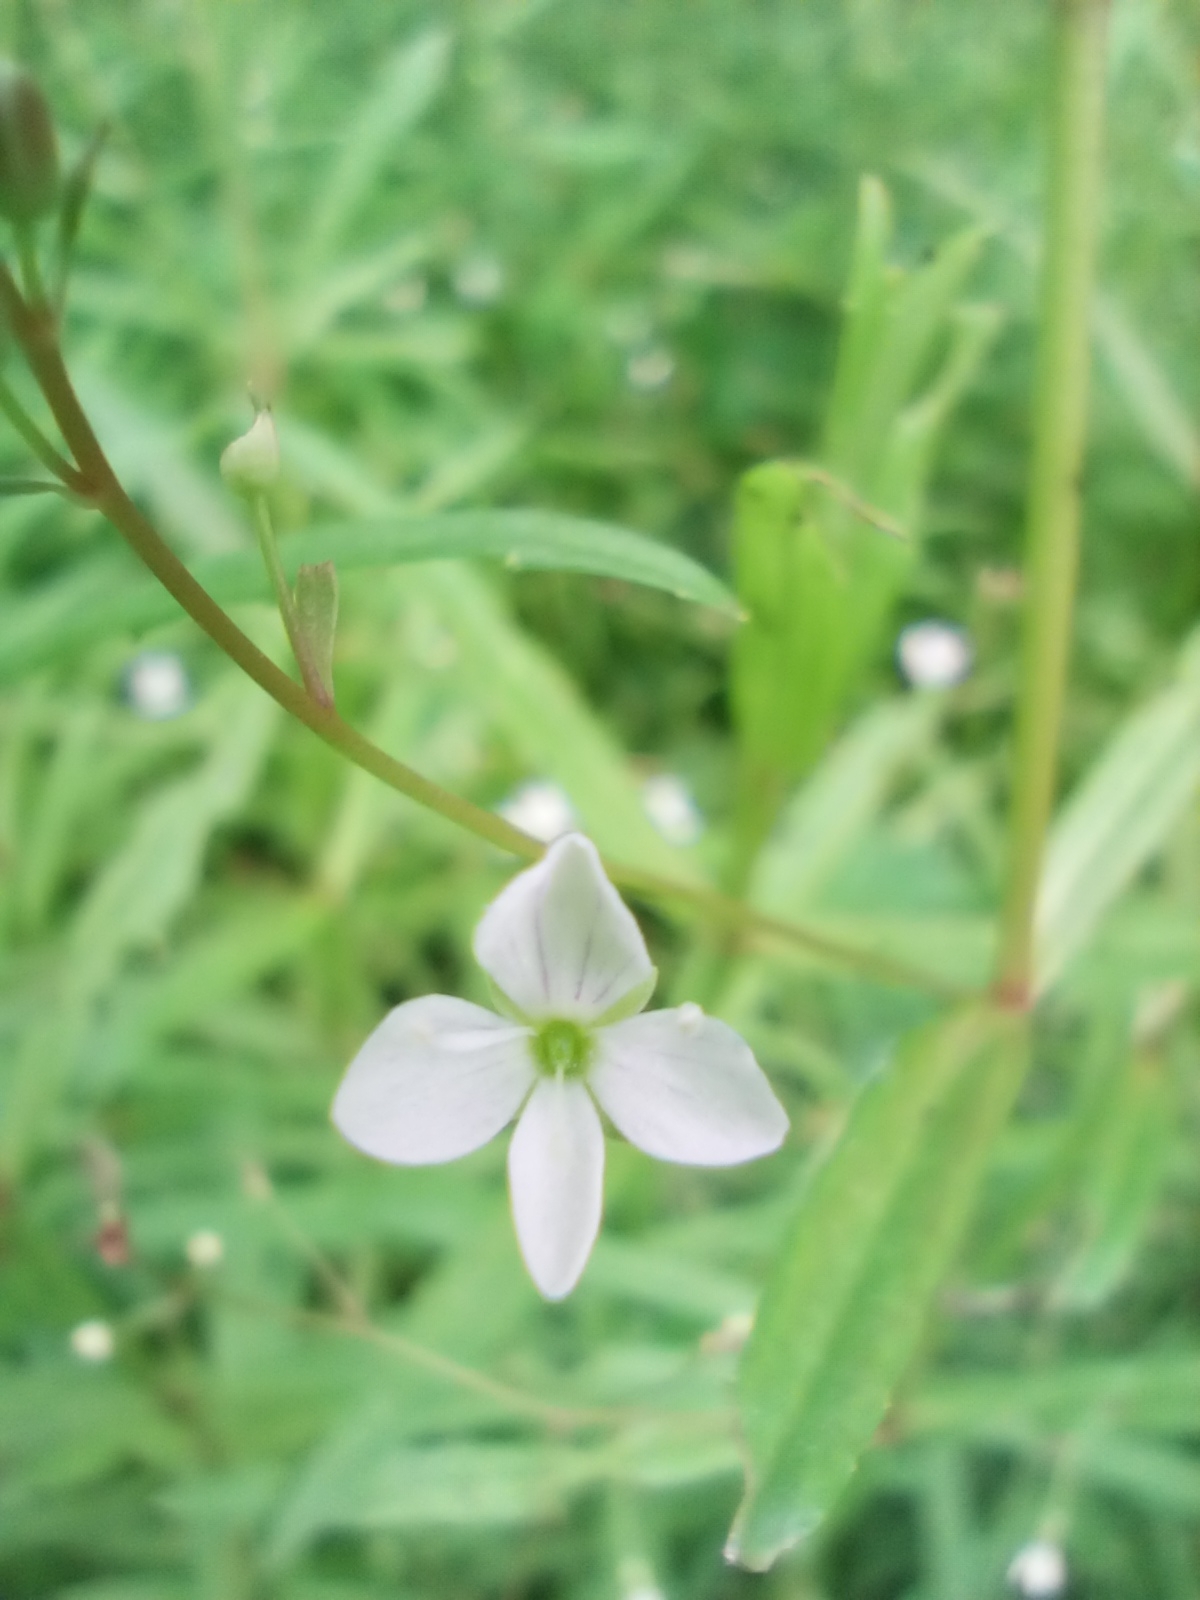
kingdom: Plantae
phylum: Tracheophyta
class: Magnoliopsida
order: Lamiales
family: Plantaginaceae
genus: Veronica
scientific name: Veronica scutellata
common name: Marsh speedwell
